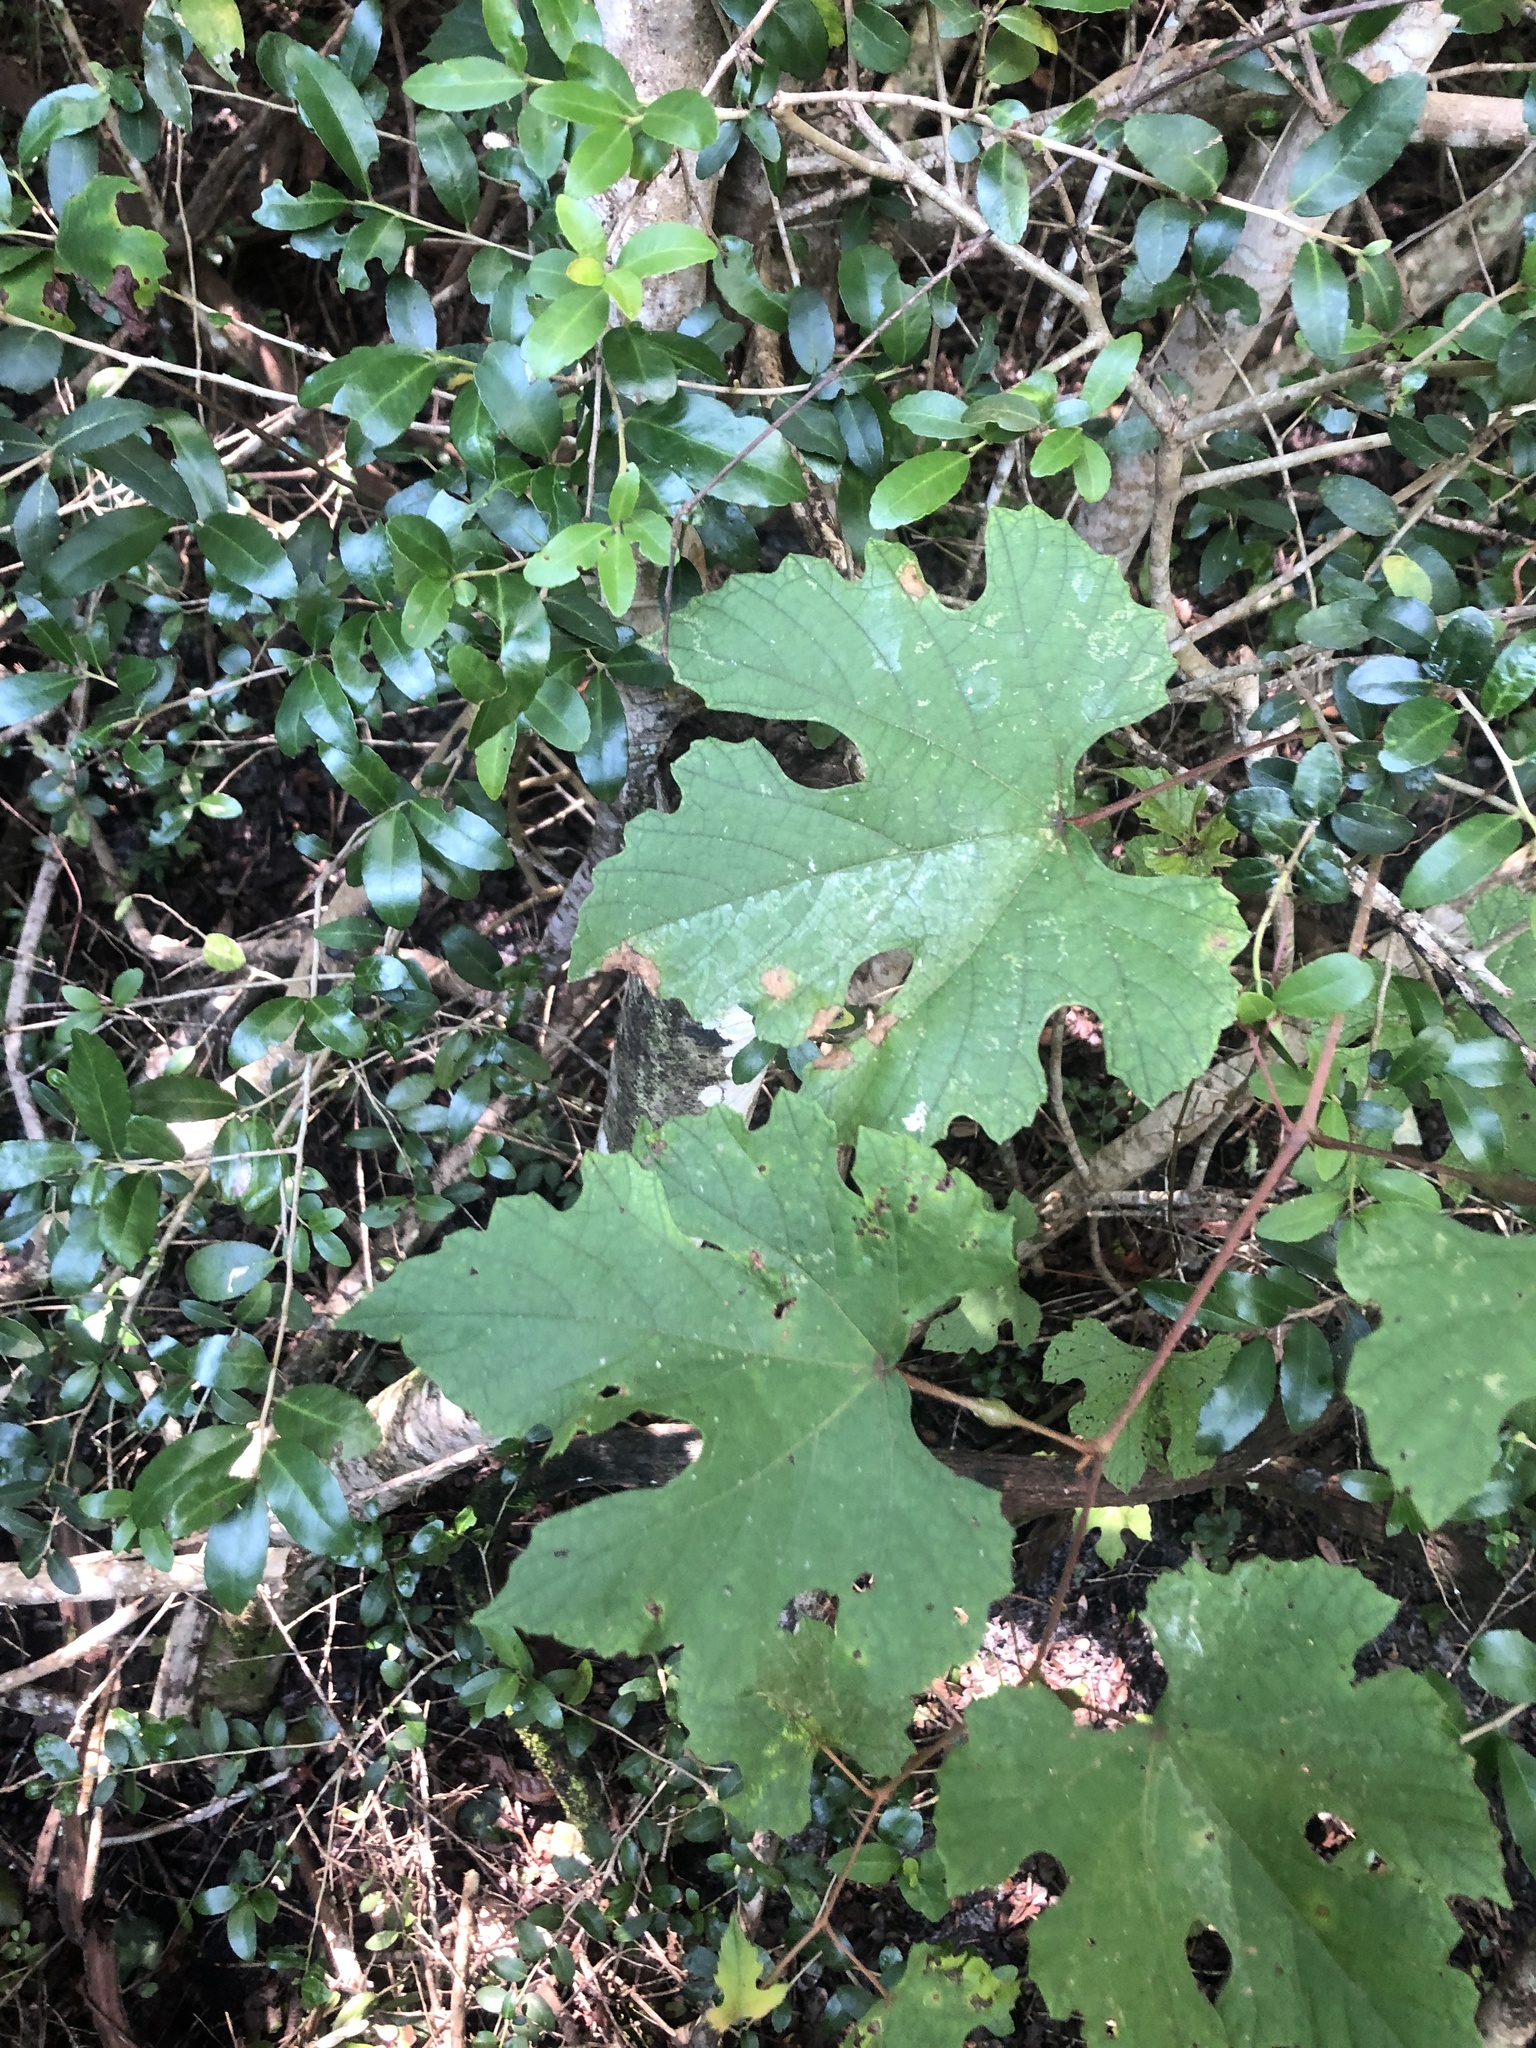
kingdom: Plantae
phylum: Tracheophyta
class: Magnoliopsida
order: Vitales
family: Vitaceae
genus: Vitis
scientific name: Vitis aestivalis
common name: Pigeon grape
